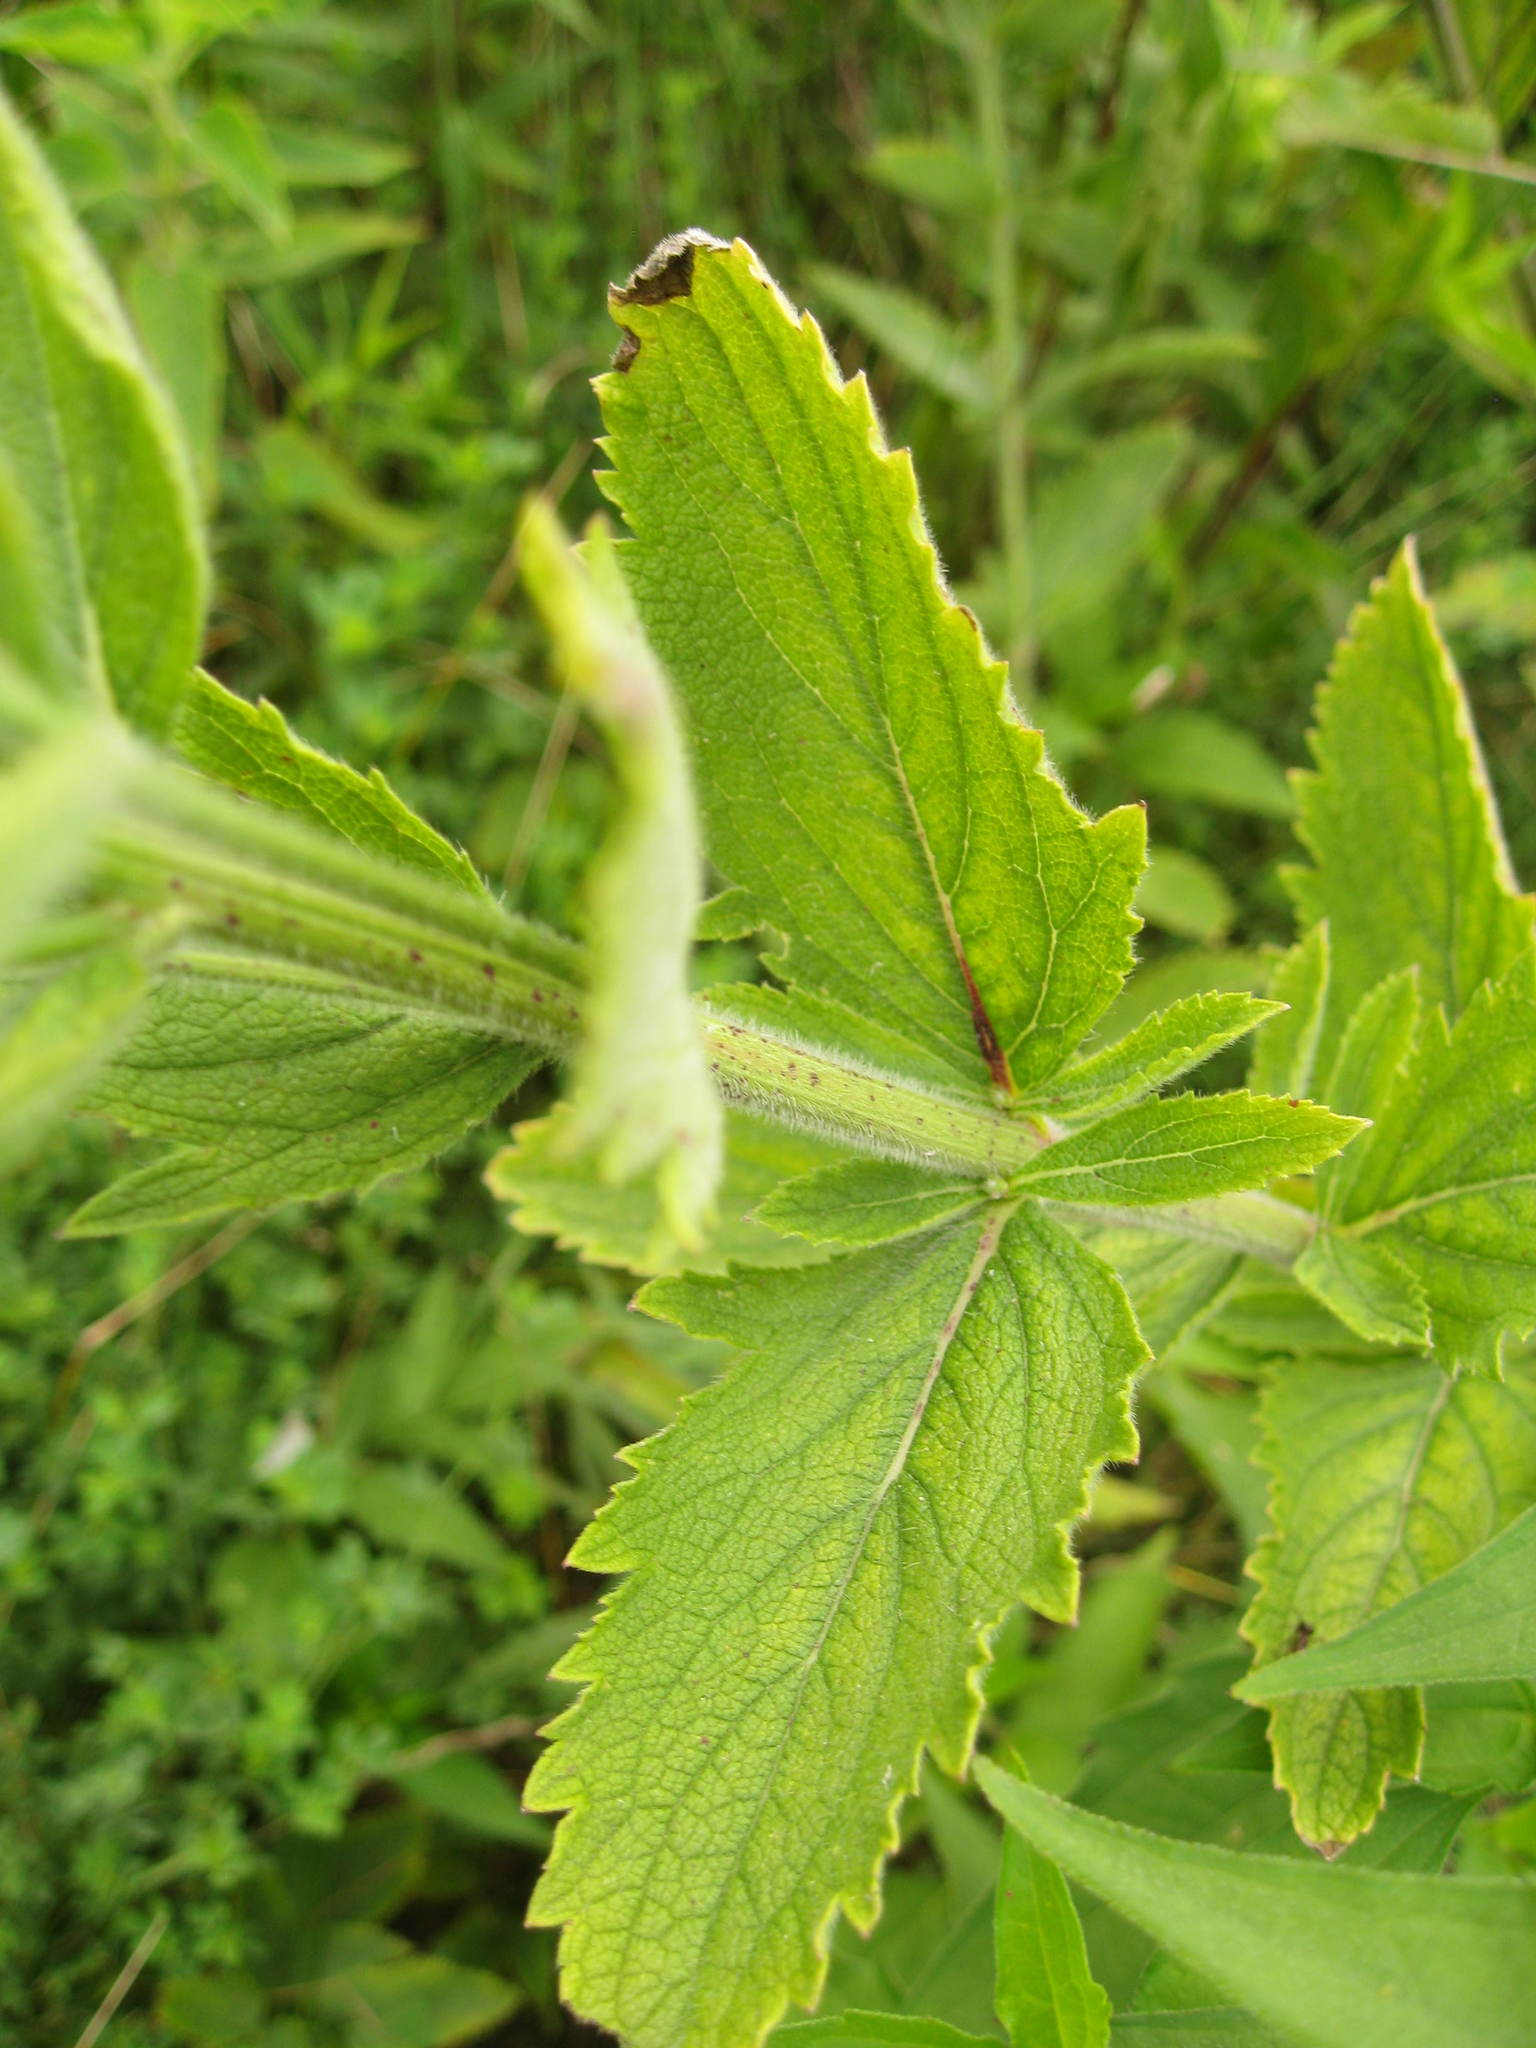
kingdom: Plantae
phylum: Tracheophyta
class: Magnoliopsida
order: Lamiales
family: Verbenaceae
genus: Verbena
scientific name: Verbena stricta
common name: Hoary vervain
